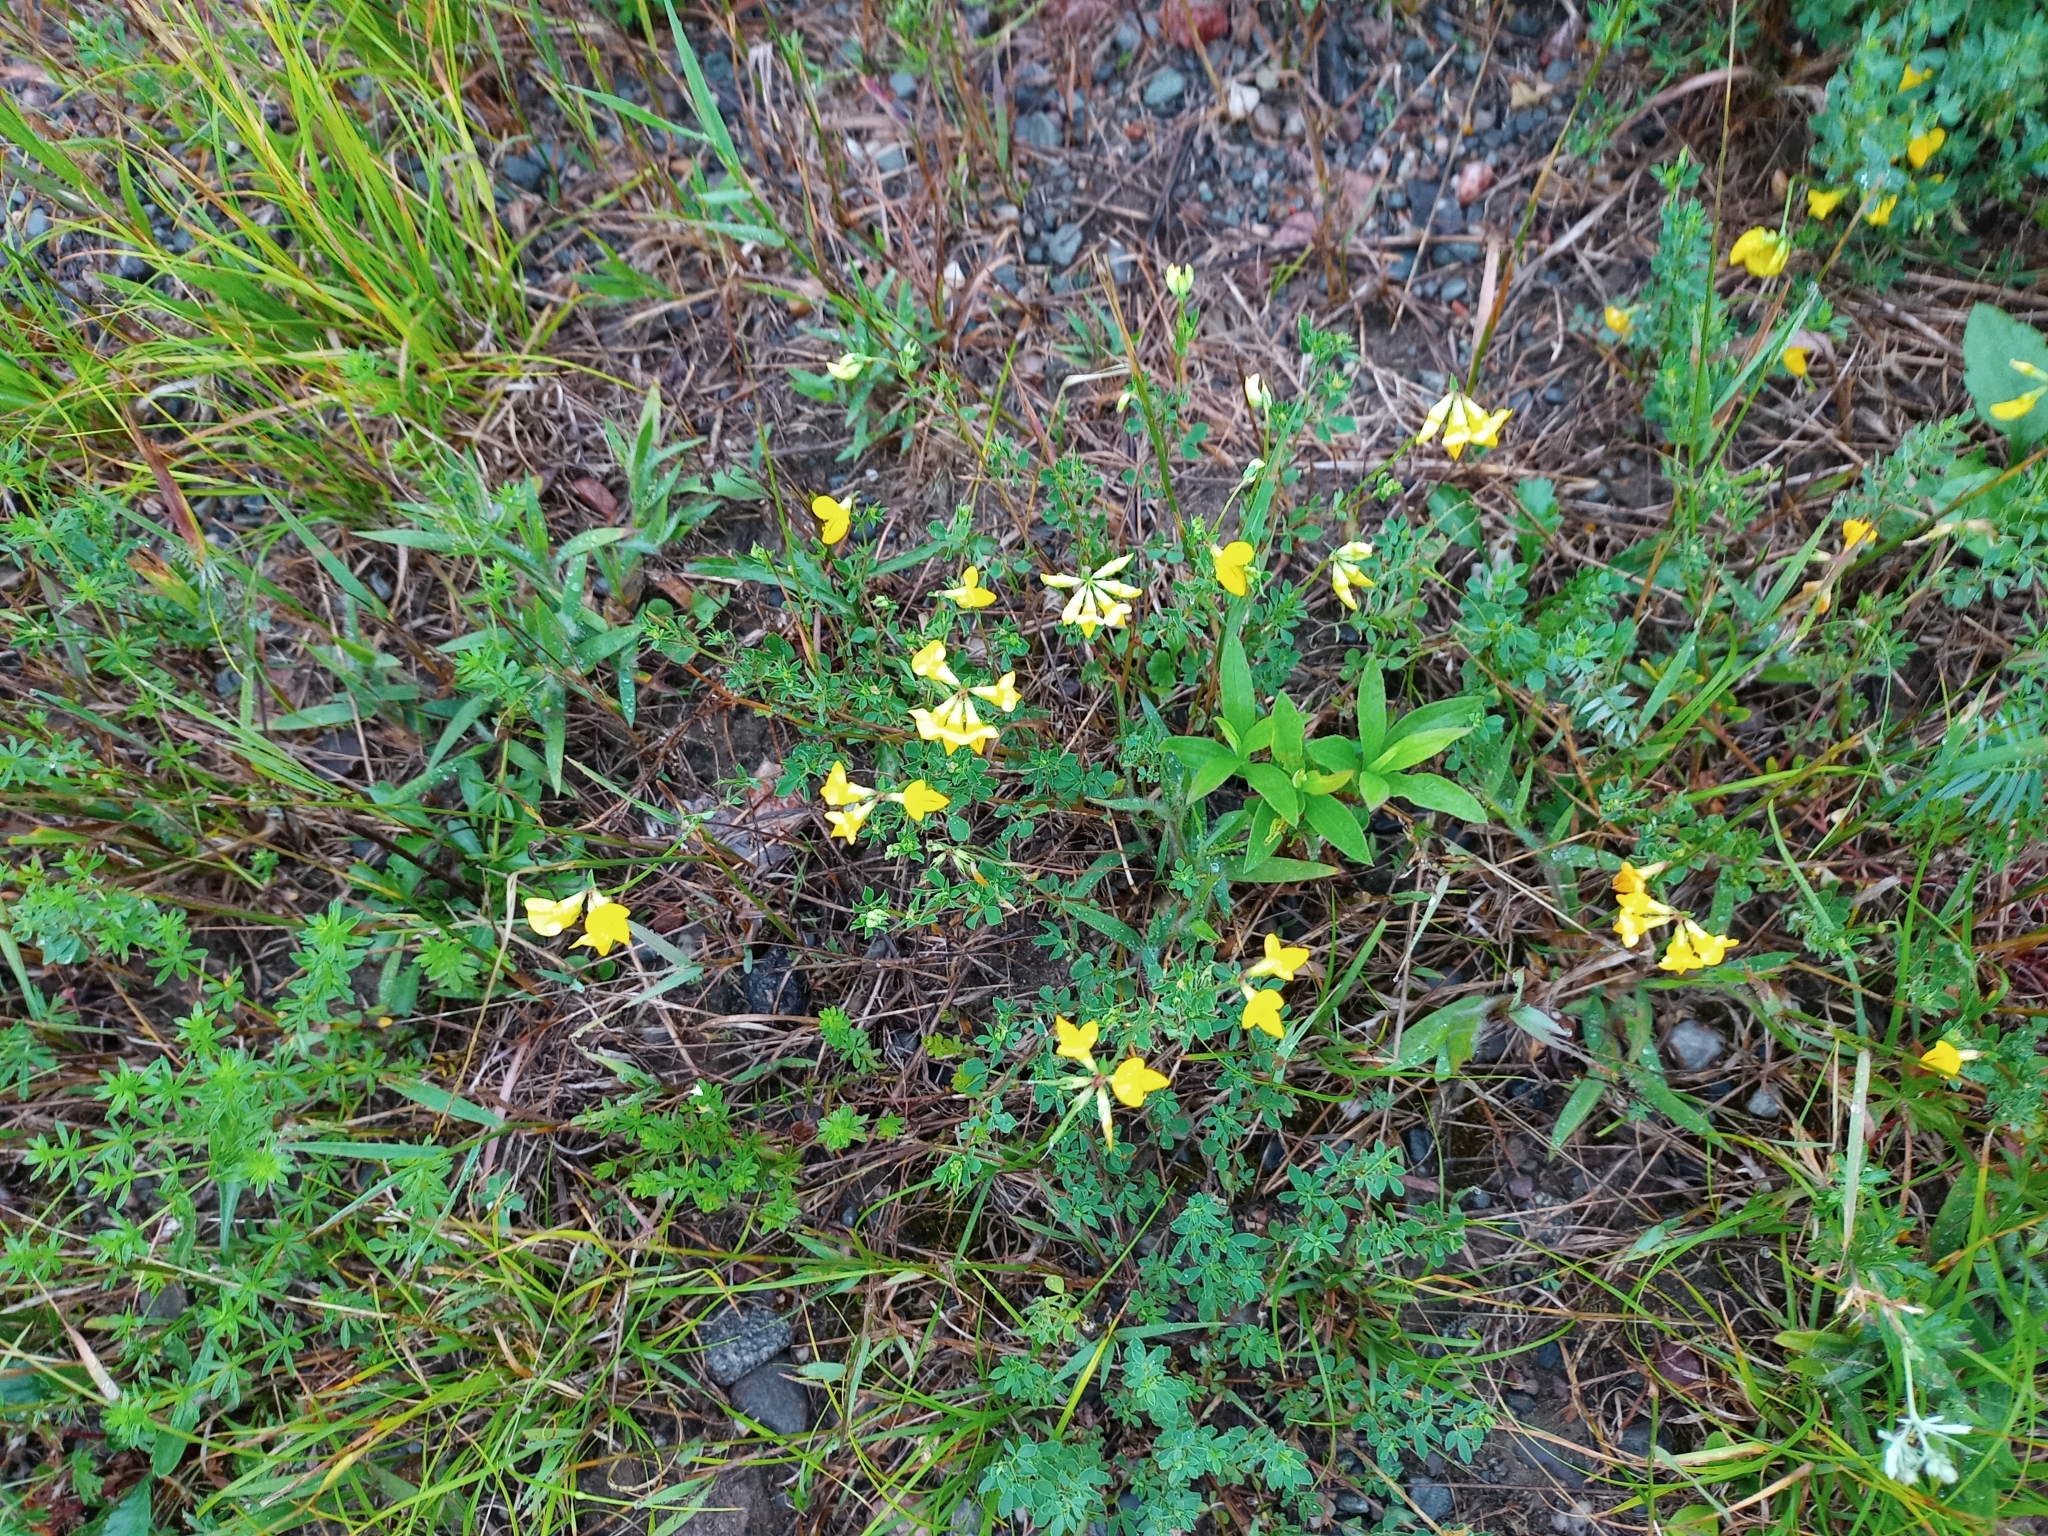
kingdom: Plantae
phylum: Tracheophyta
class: Magnoliopsida
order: Fabales
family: Fabaceae
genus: Lotus
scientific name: Lotus corniculatus
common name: Common bird's-foot-trefoil
